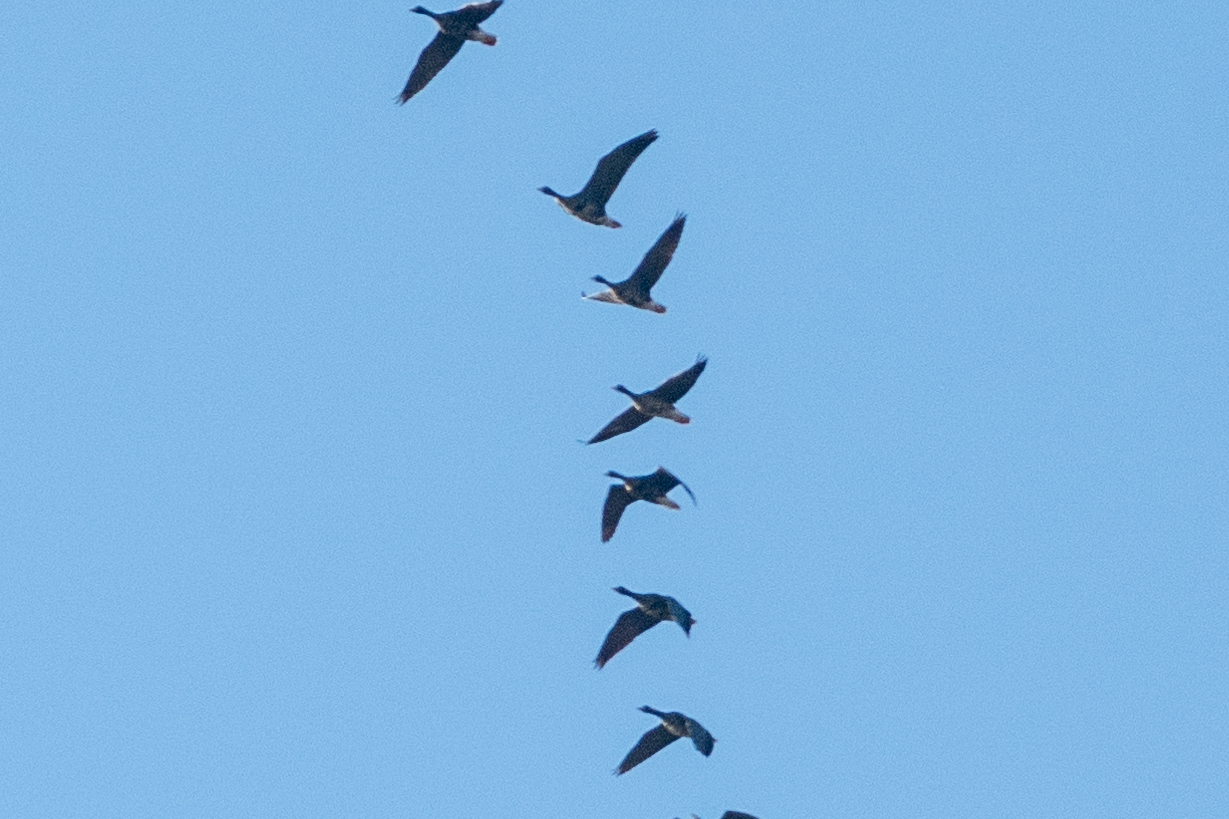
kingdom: Animalia
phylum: Chordata
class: Aves
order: Anseriformes
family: Anatidae
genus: Anser
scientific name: Anser albifrons
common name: Greater white-fronted goose
